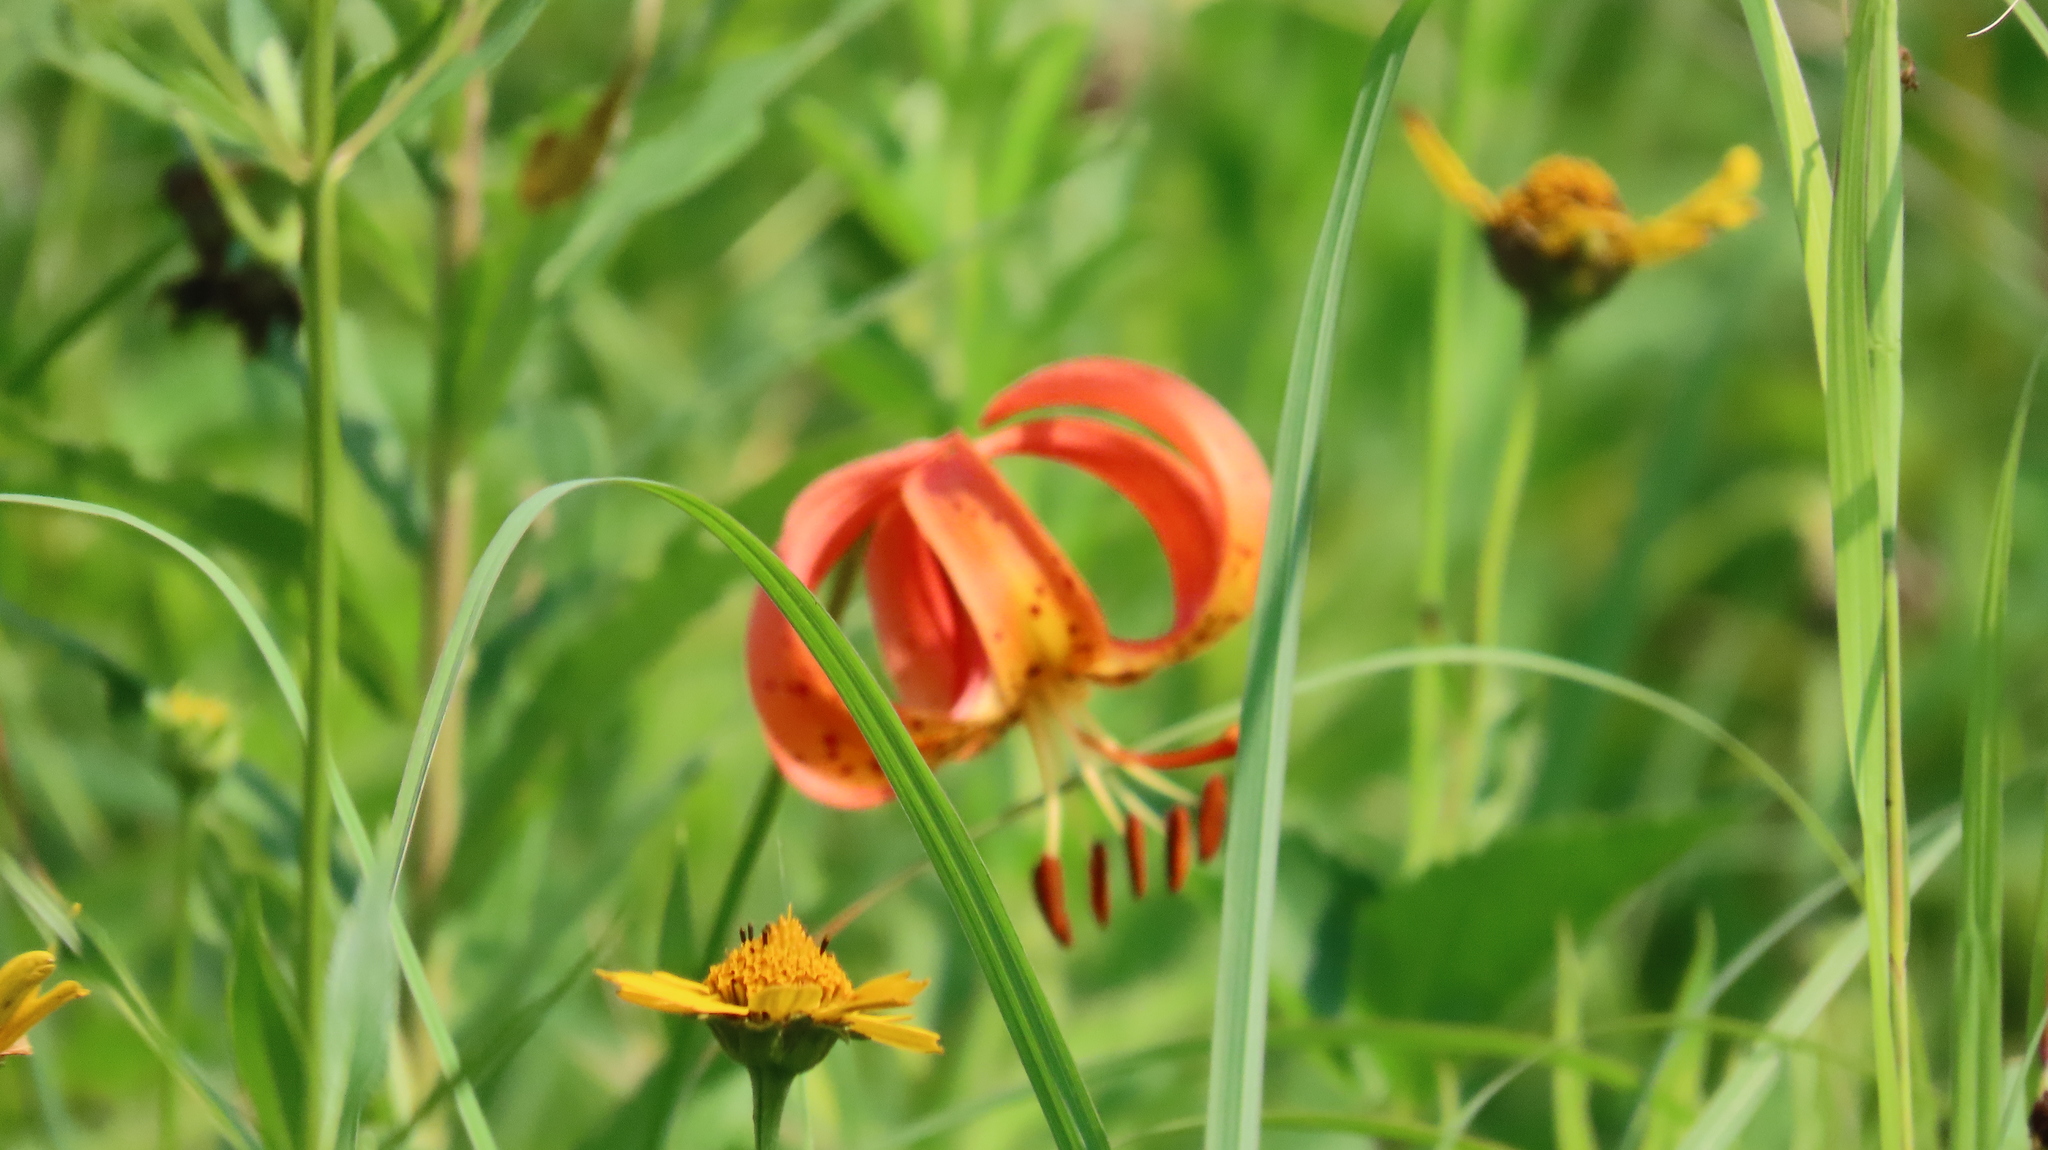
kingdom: Plantae
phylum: Tracheophyta
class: Liliopsida
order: Liliales
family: Liliaceae
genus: Lilium
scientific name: Lilium michiganense
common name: Michigan lily
